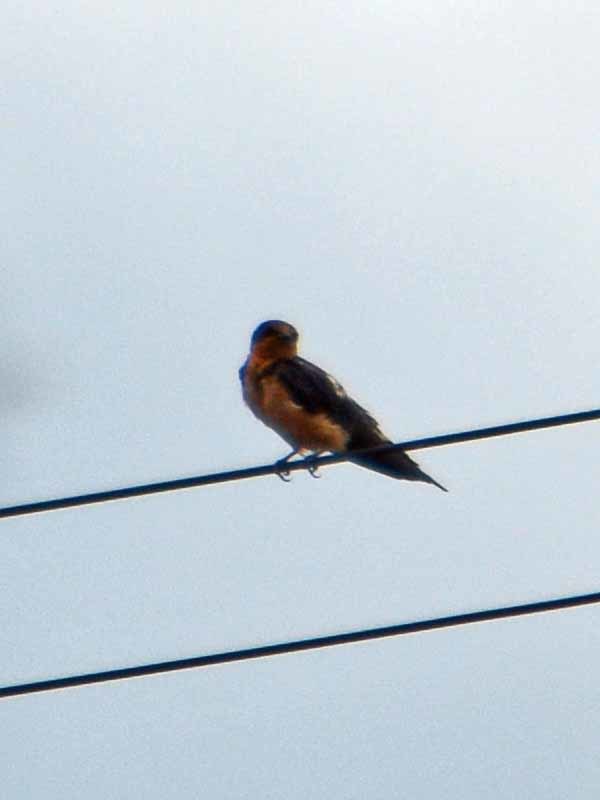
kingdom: Animalia
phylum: Chordata
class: Aves
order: Passeriformes
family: Hirundinidae
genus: Hirundo
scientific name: Hirundo rustica
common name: Barn swallow
